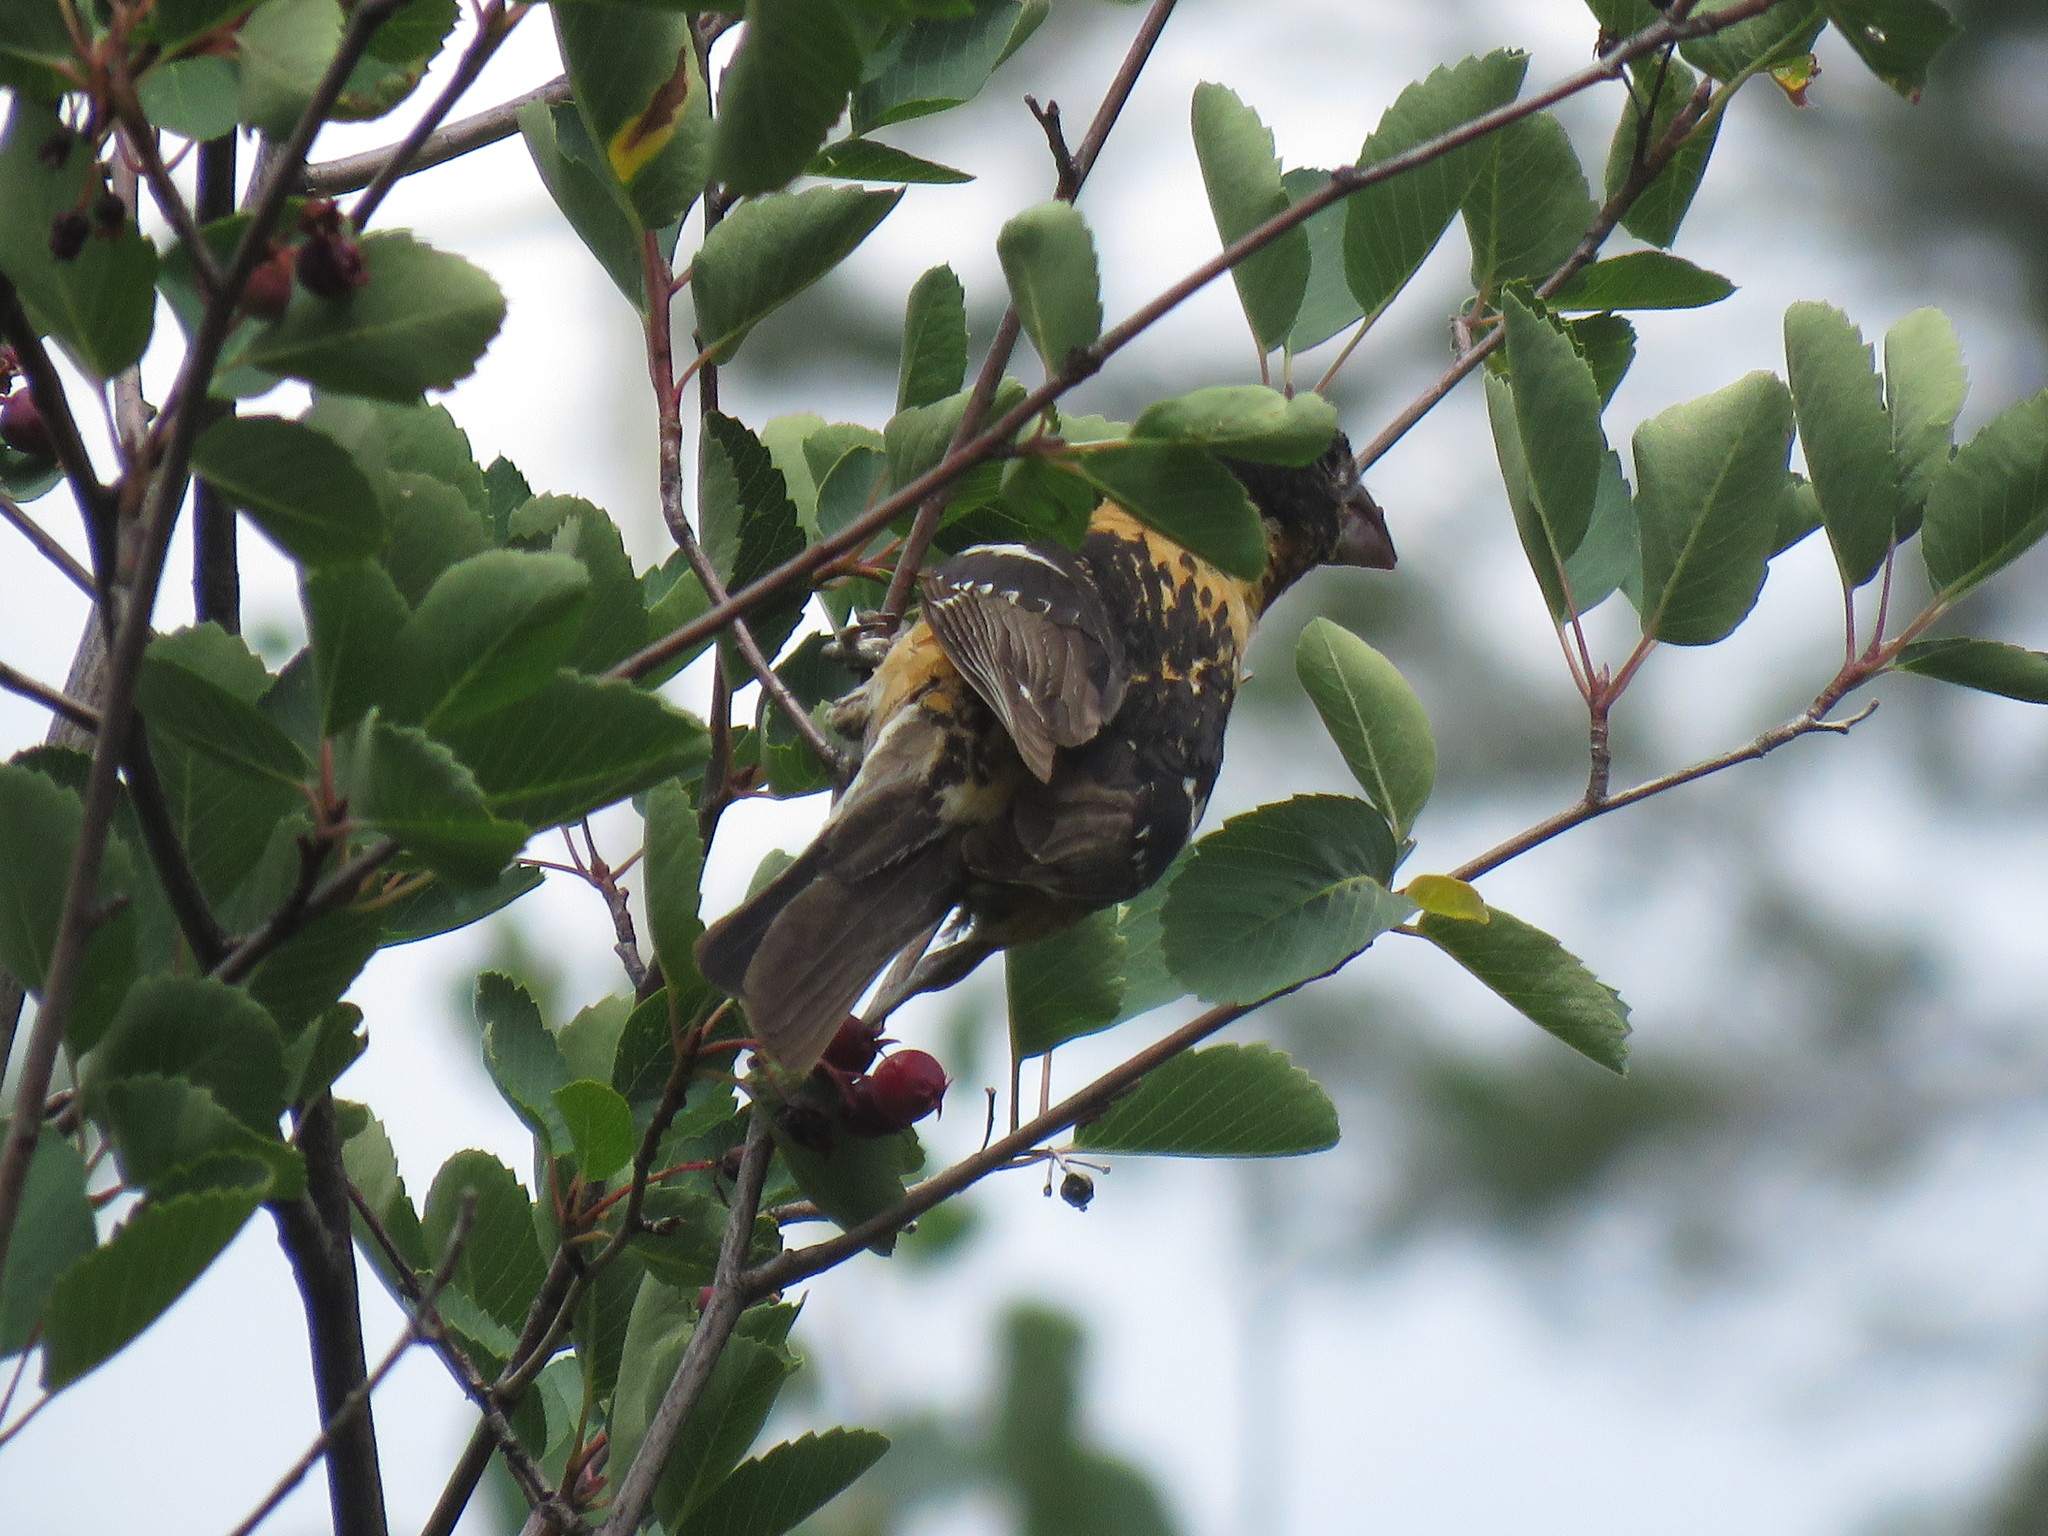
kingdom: Animalia
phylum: Chordata
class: Aves
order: Passeriformes
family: Cardinalidae
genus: Pheucticus
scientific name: Pheucticus melanocephalus
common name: Black-headed grosbeak
